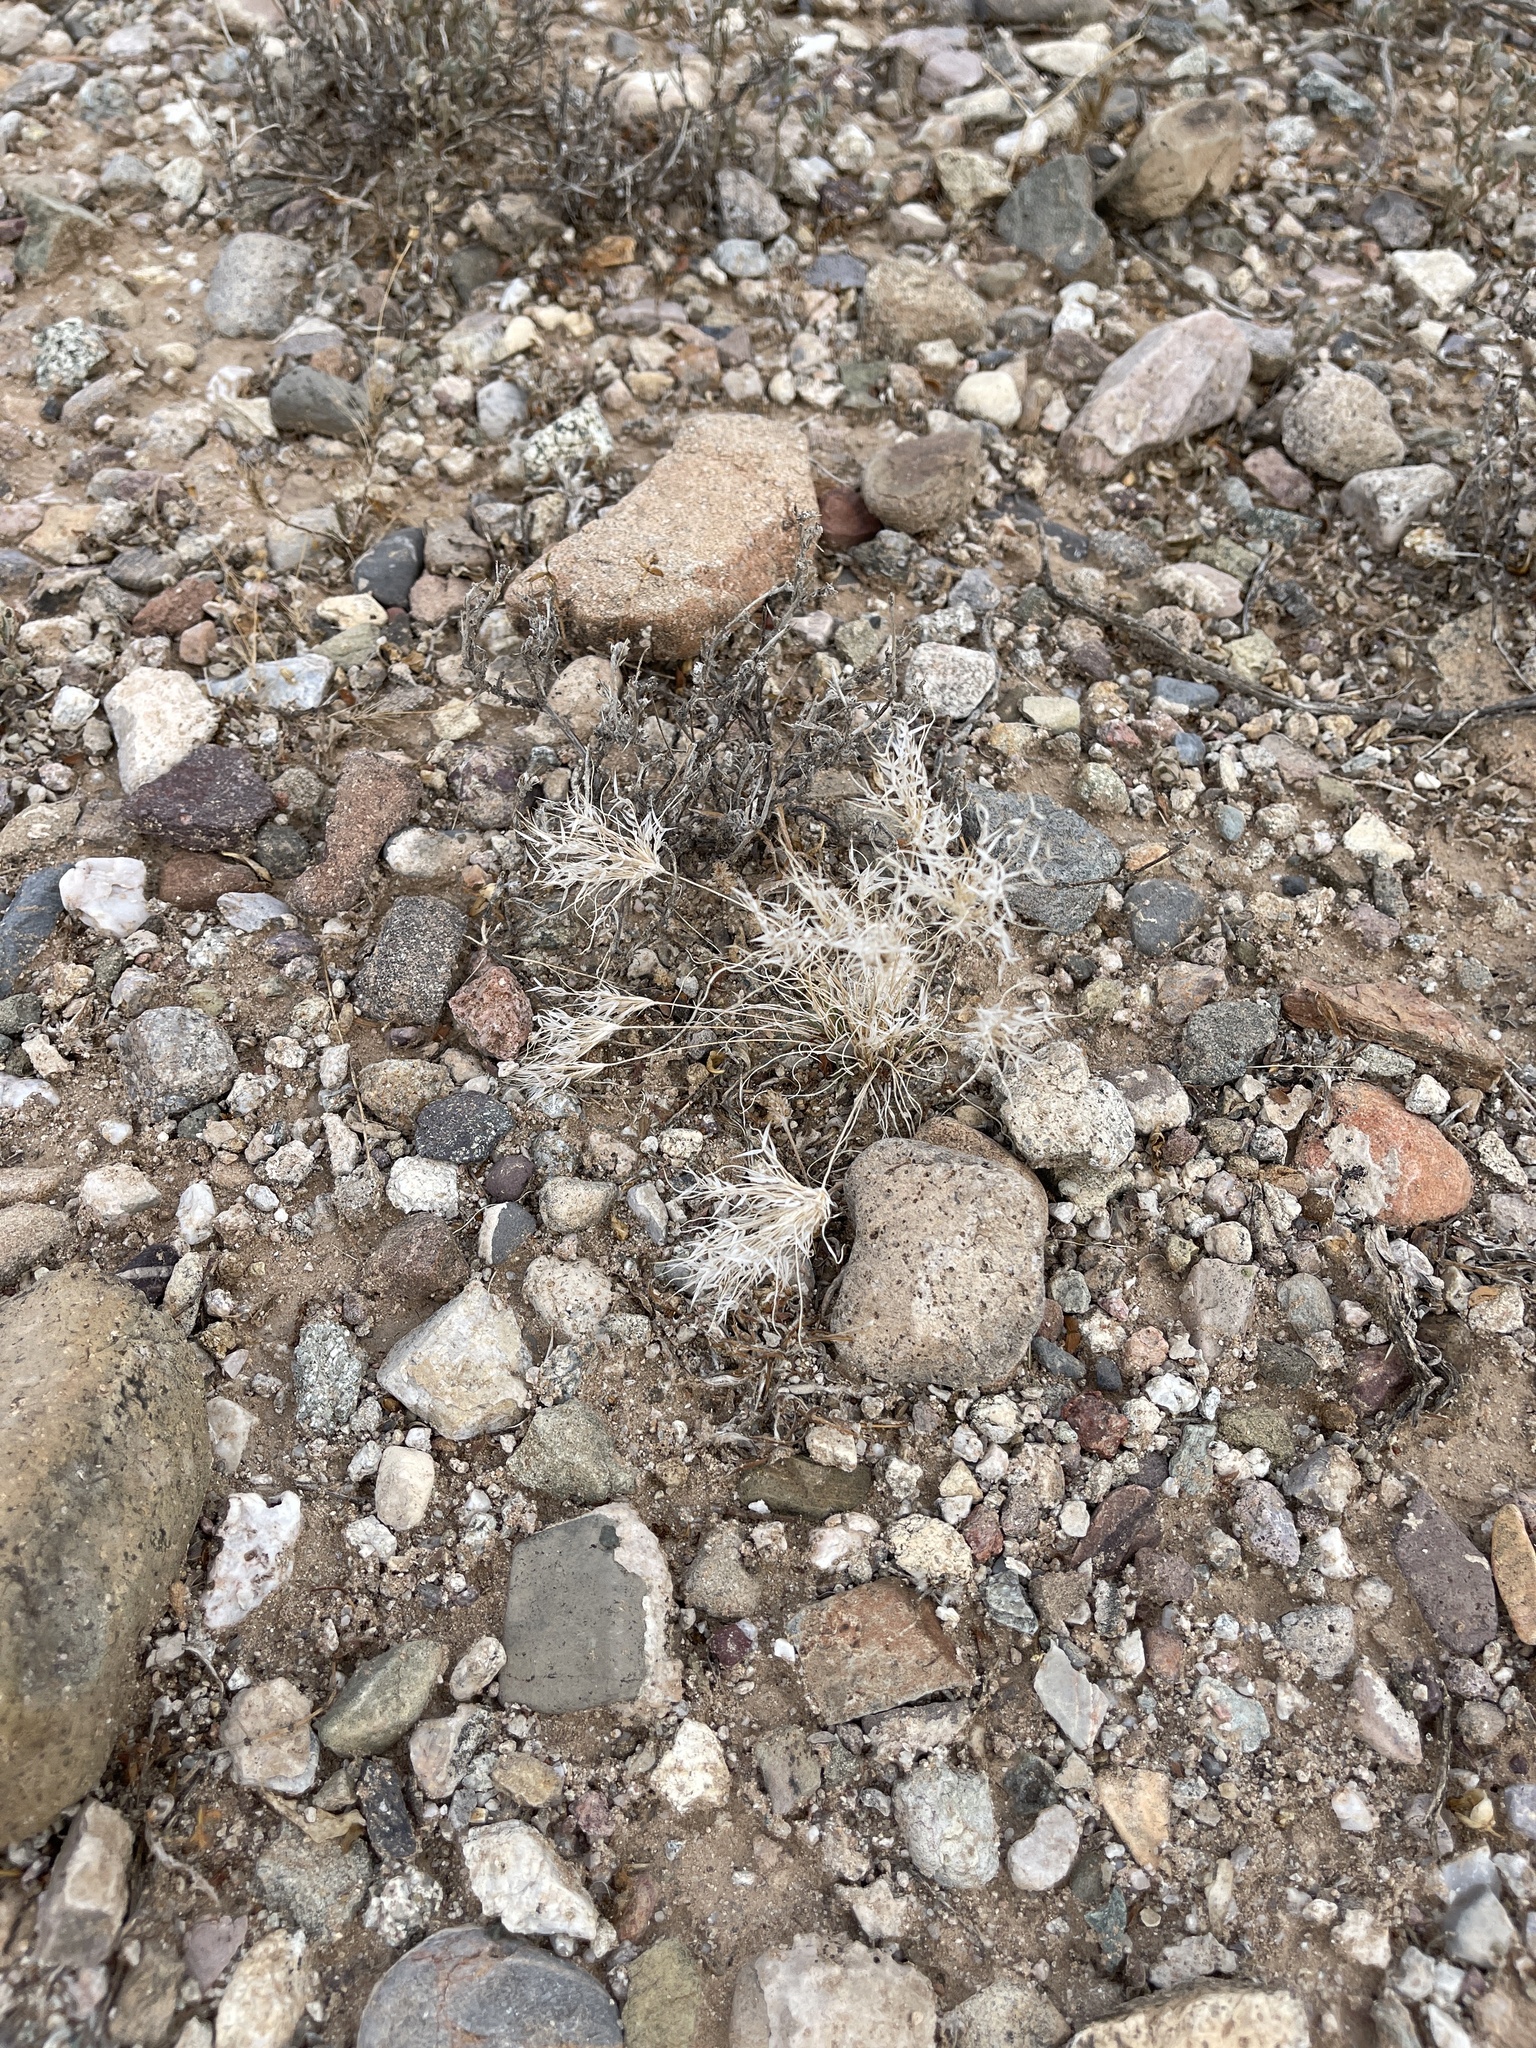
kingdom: Plantae
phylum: Tracheophyta
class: Liliopsida
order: Poales
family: Poaceae
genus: Dasyochloa
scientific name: Dasyochloa pulchella
